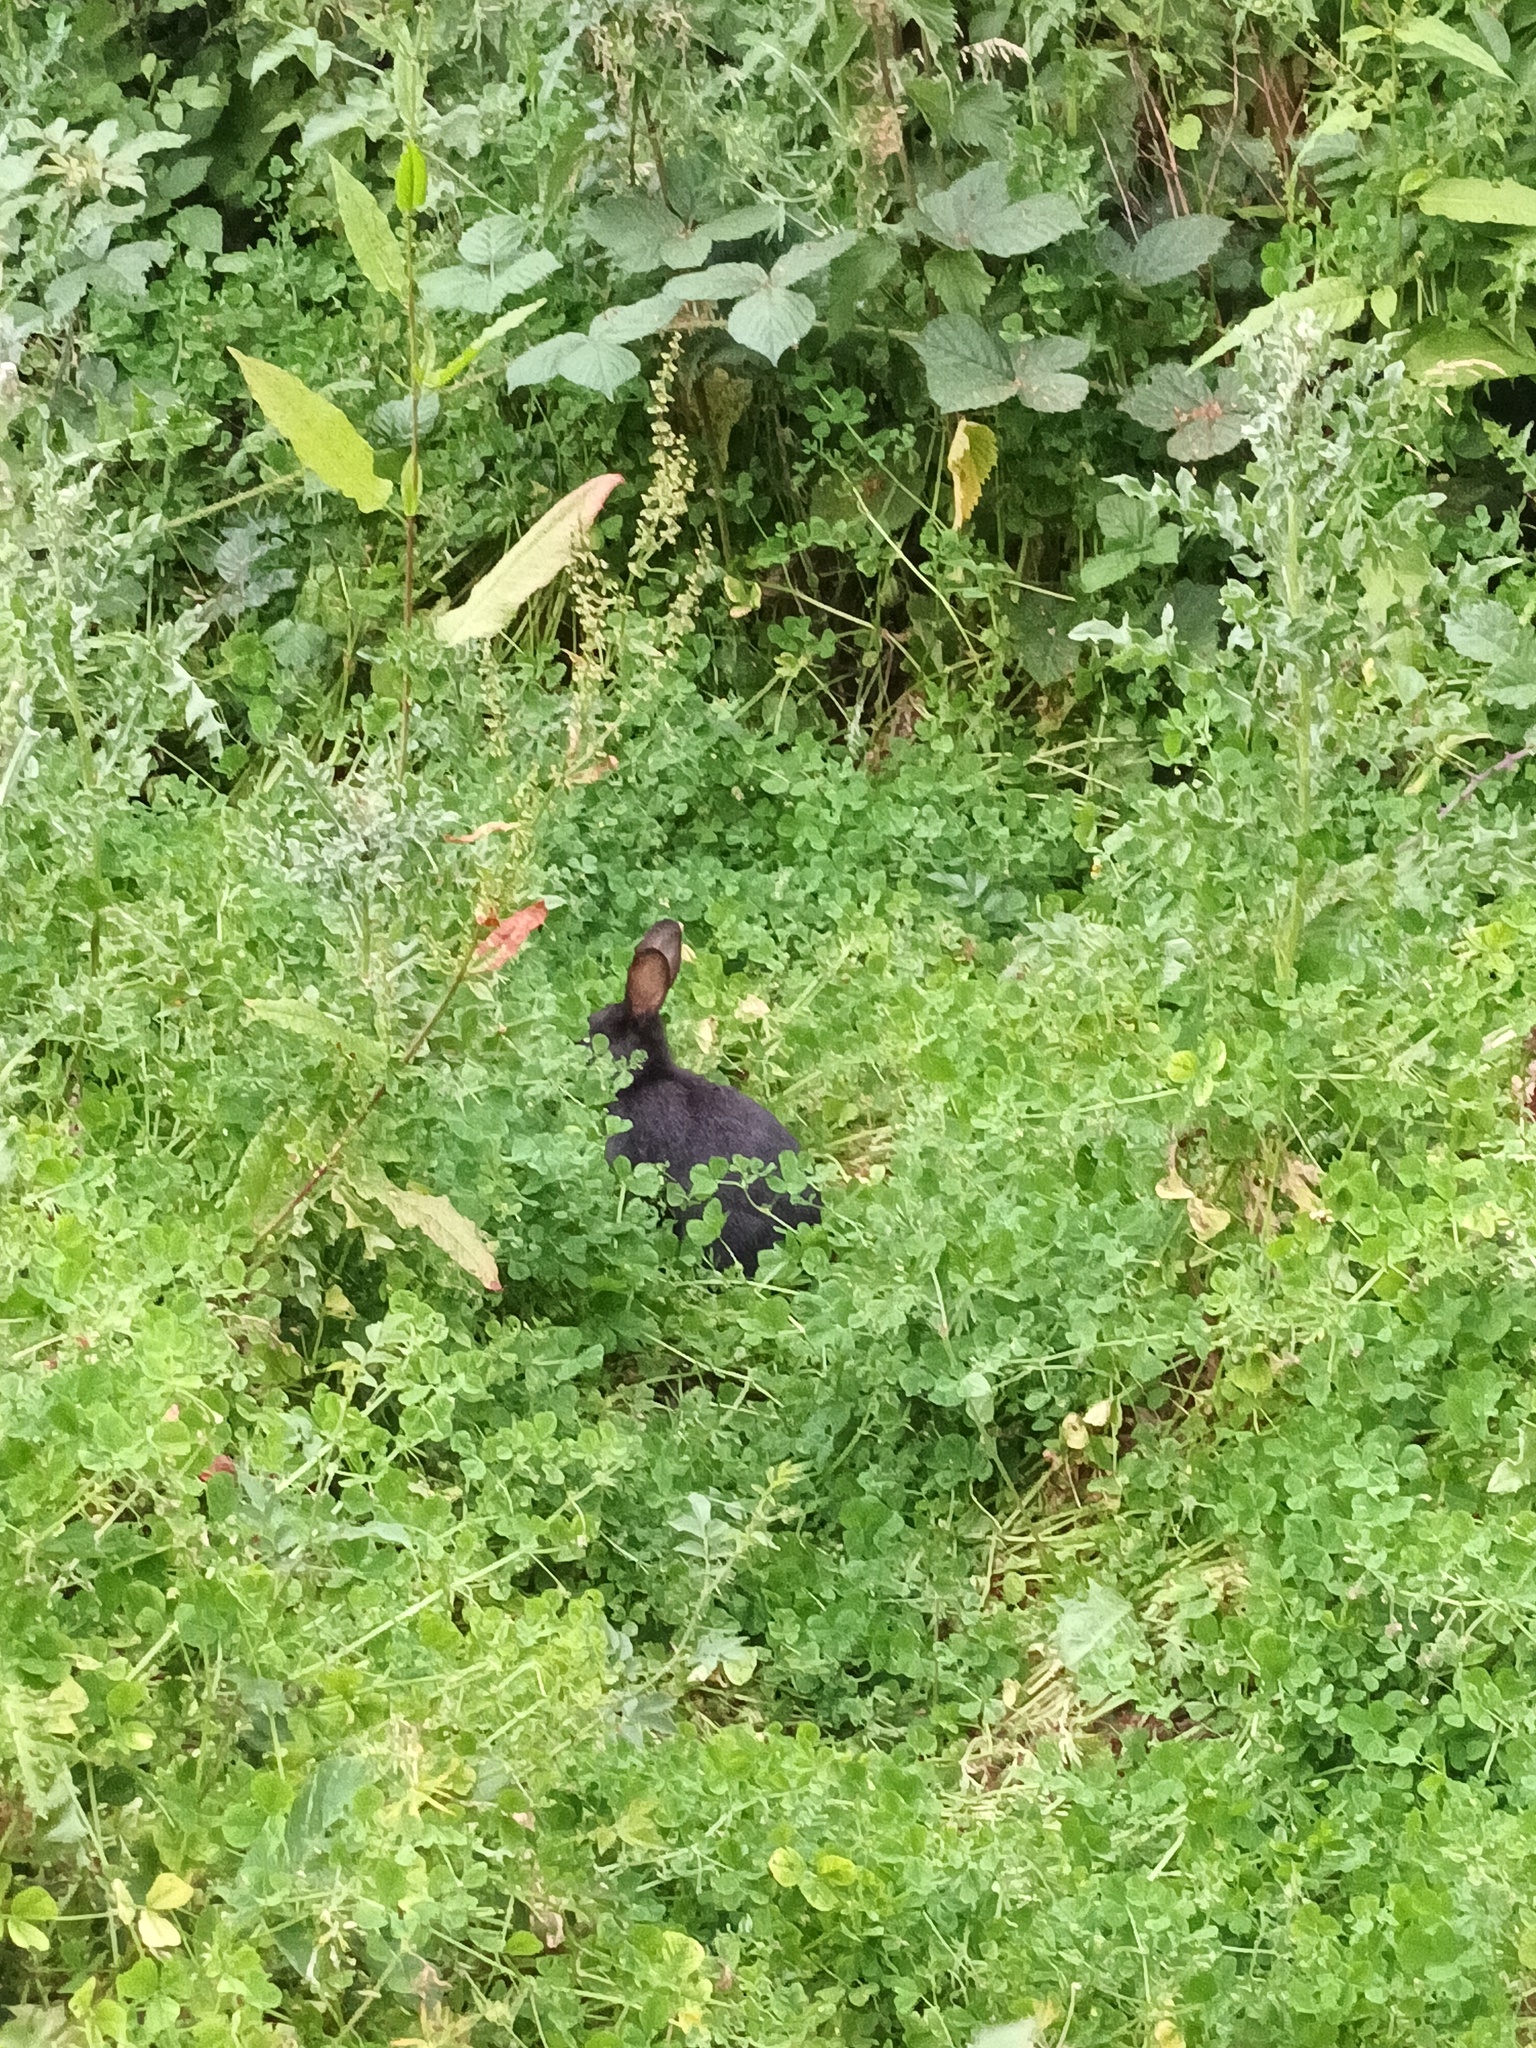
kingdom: Animalia
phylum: Chordata
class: Mammalia
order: Lagomorpha
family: Leporidae
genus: Oryctolagus
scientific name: Oryctolagus cuniculus
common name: European rabbit
